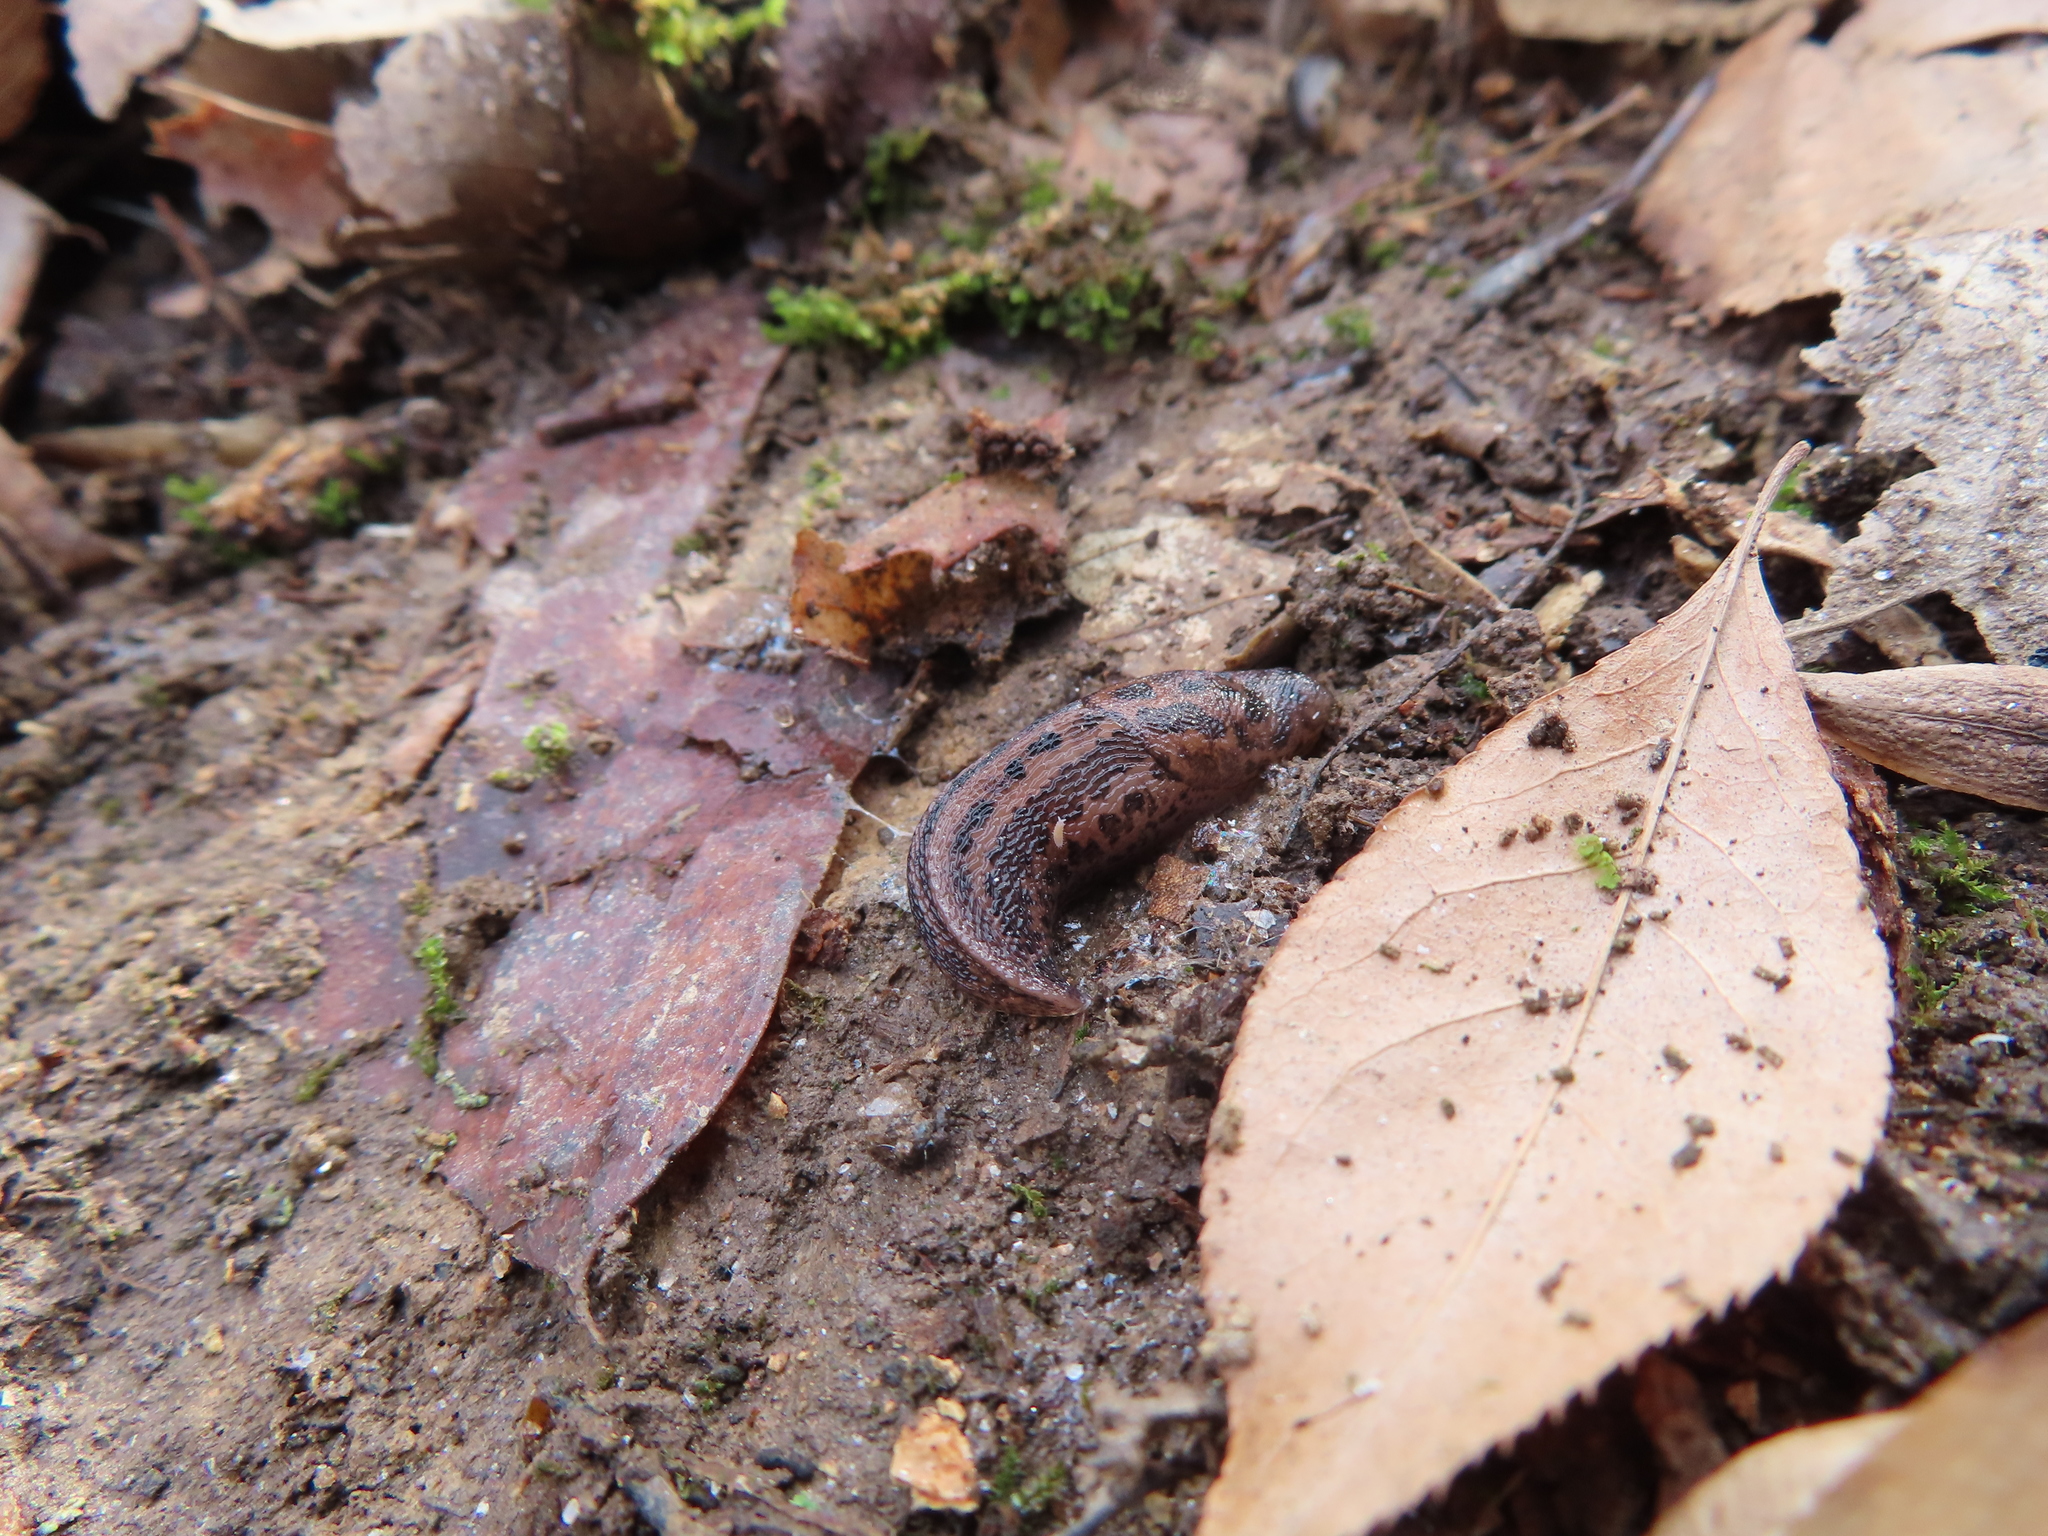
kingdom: Animalia
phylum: Mollusca
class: Gastropoda
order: Stylommatophora
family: Limacidae
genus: Limax
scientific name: Limax maximus
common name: Great grey slug
